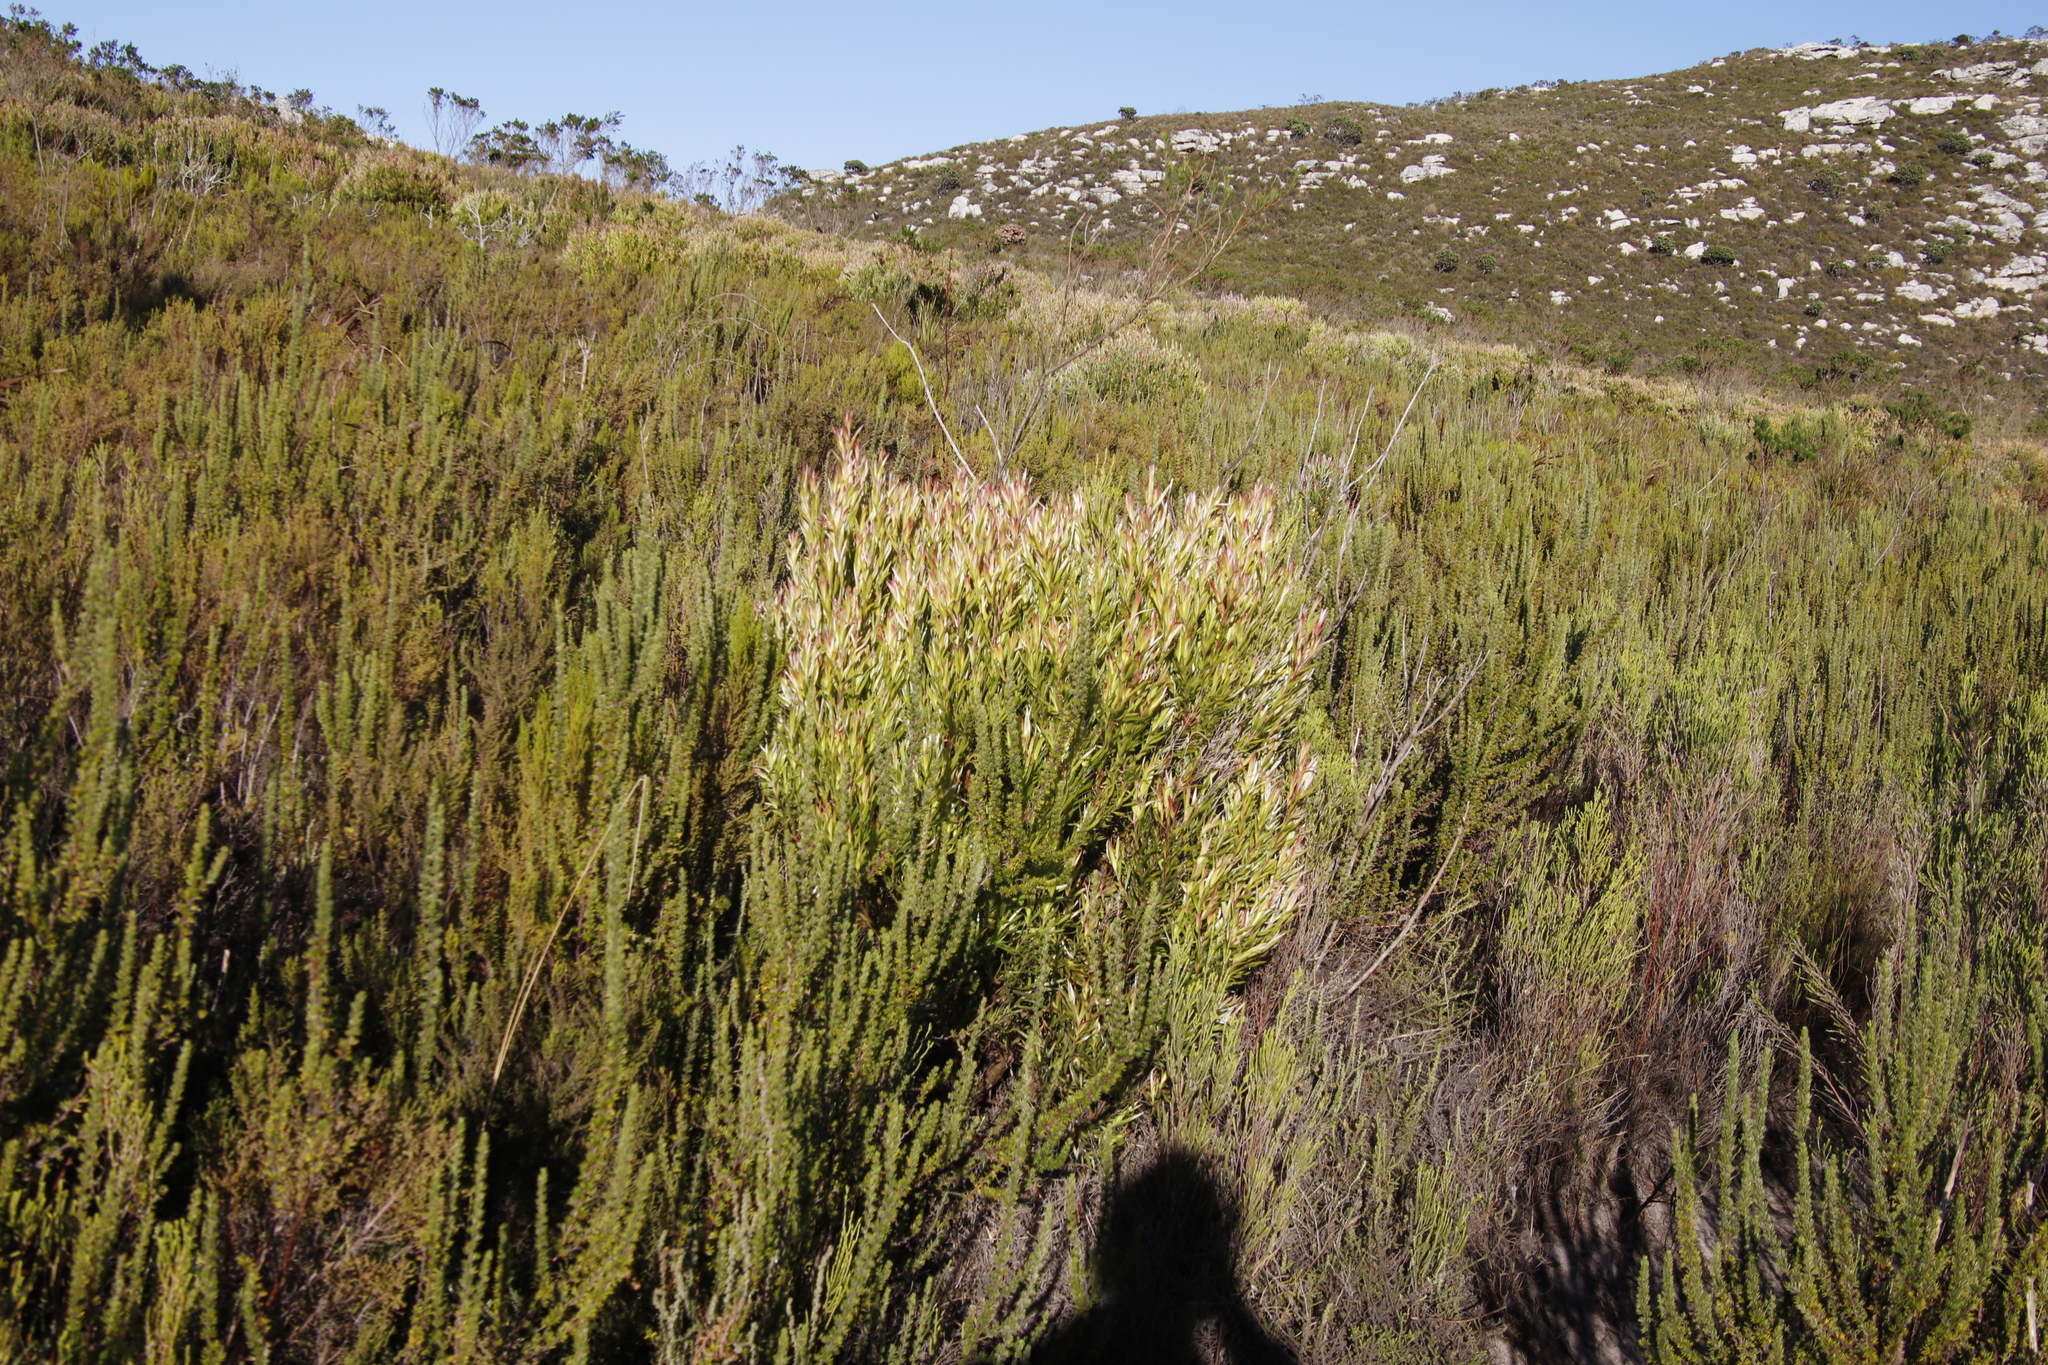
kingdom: Plantae
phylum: Tracheophyta
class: Magnoliopsida
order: Proteales
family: Proteaceae
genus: Leucadendron
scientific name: Leucadendron xanthoconus
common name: Sickle-leaf conebush
